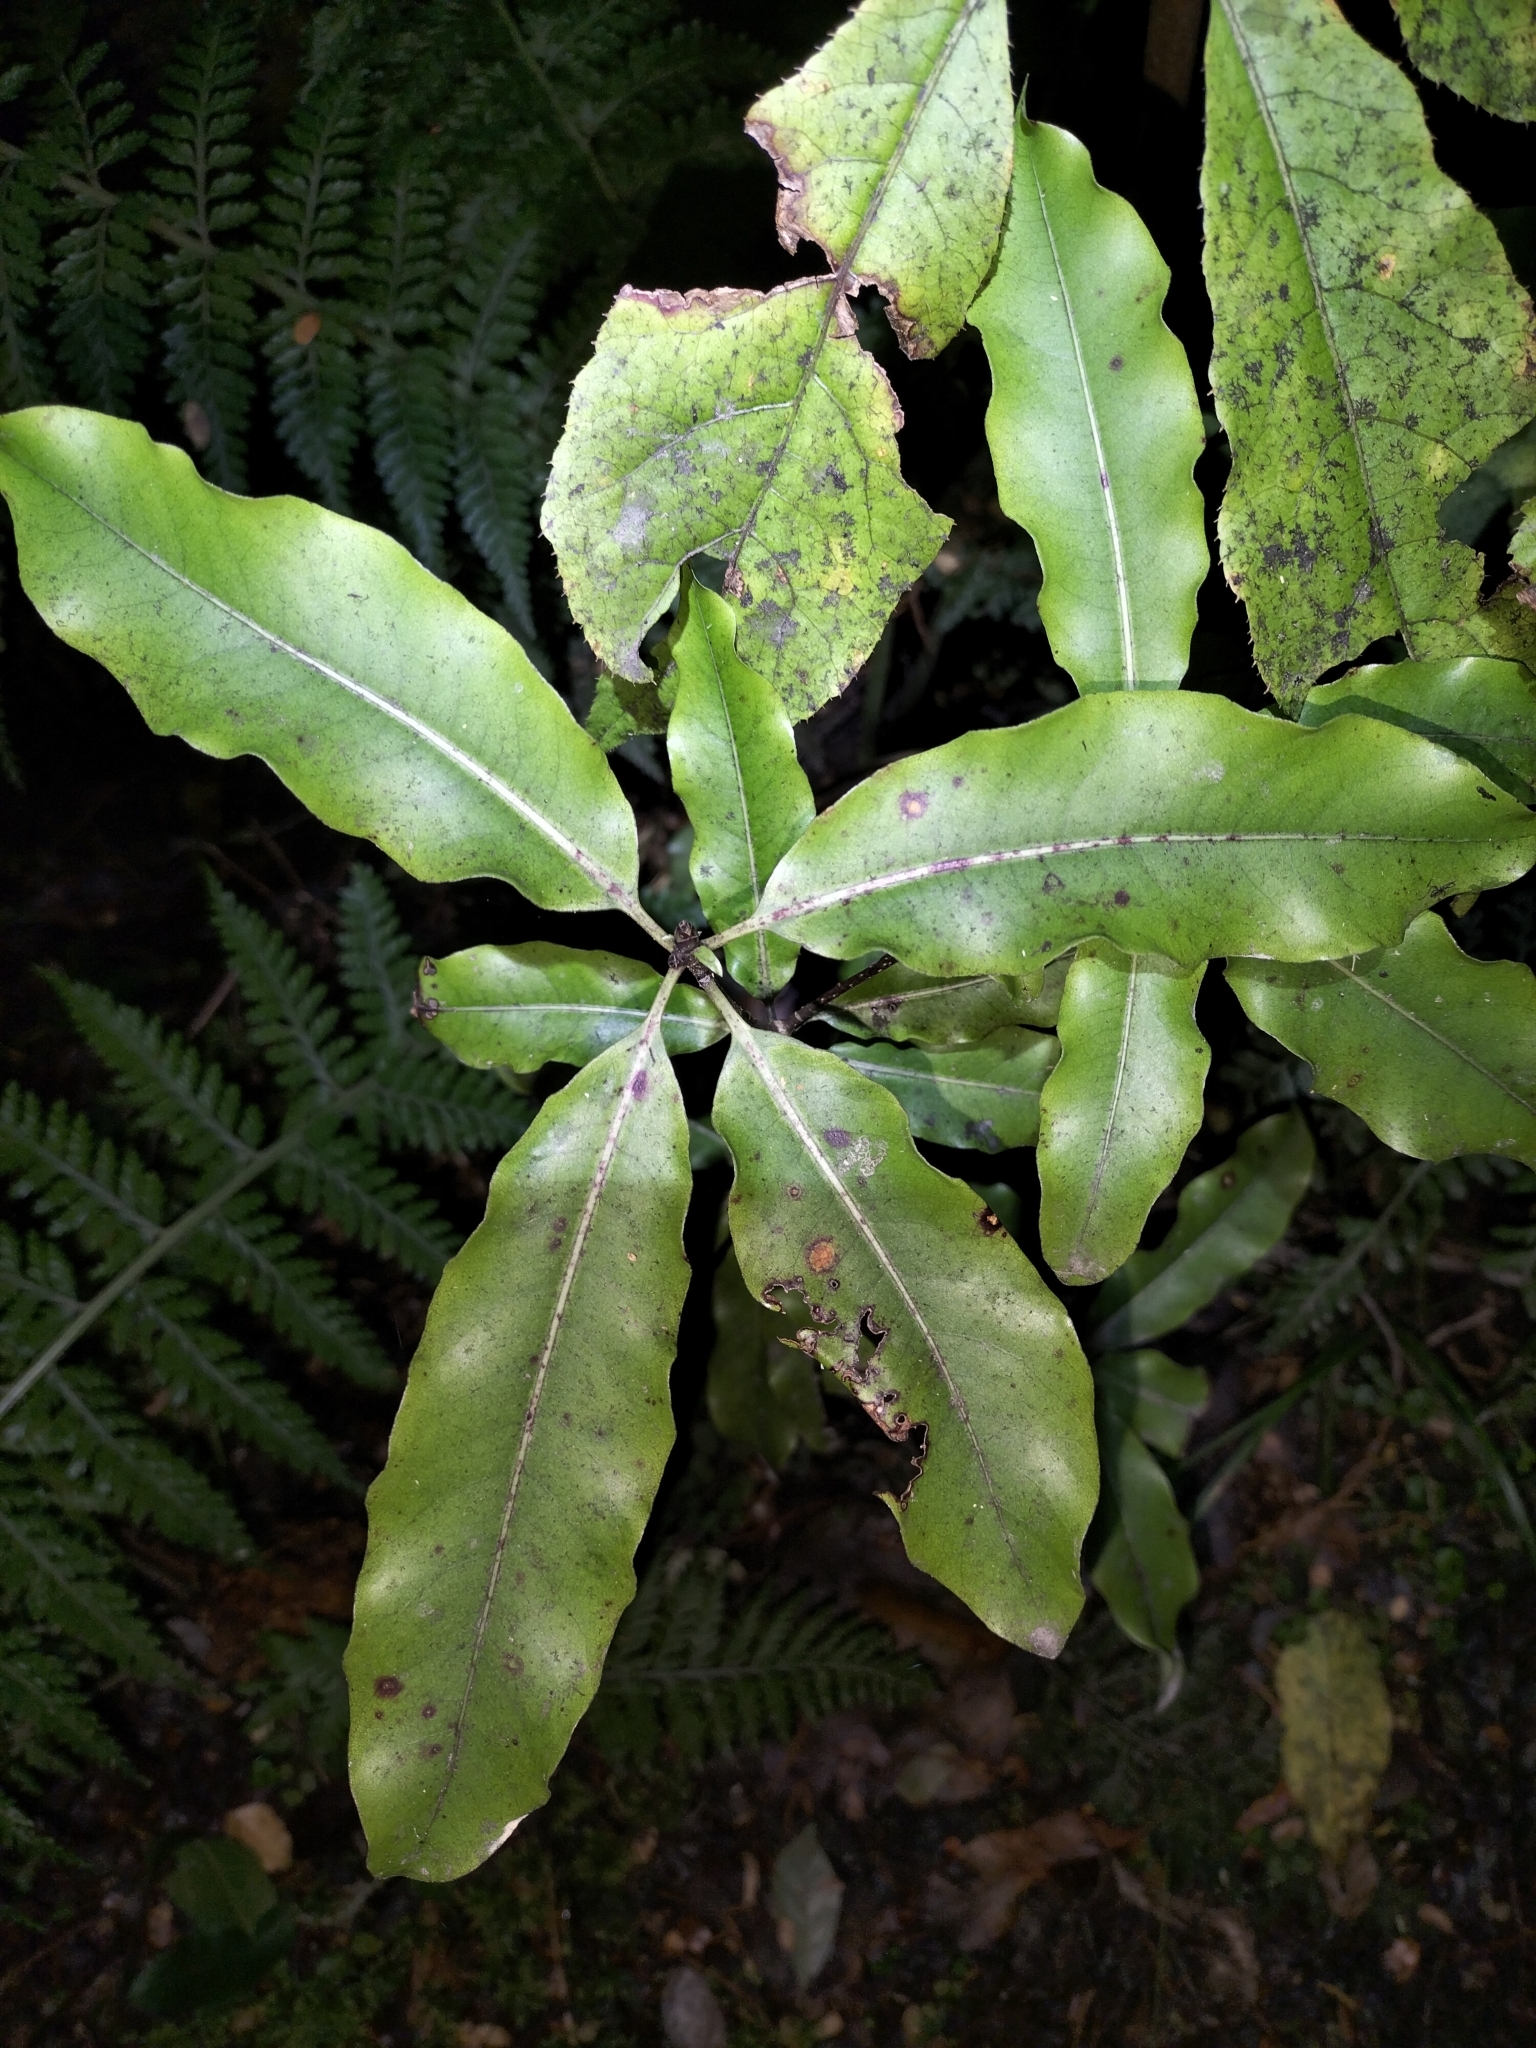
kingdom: Plantae
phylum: Tracheophyta
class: Magnoliopsida
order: Apiales
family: Pittosporaceae
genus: Pittosporum
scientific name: Pittosporum eugenioides
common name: Lemonwood
